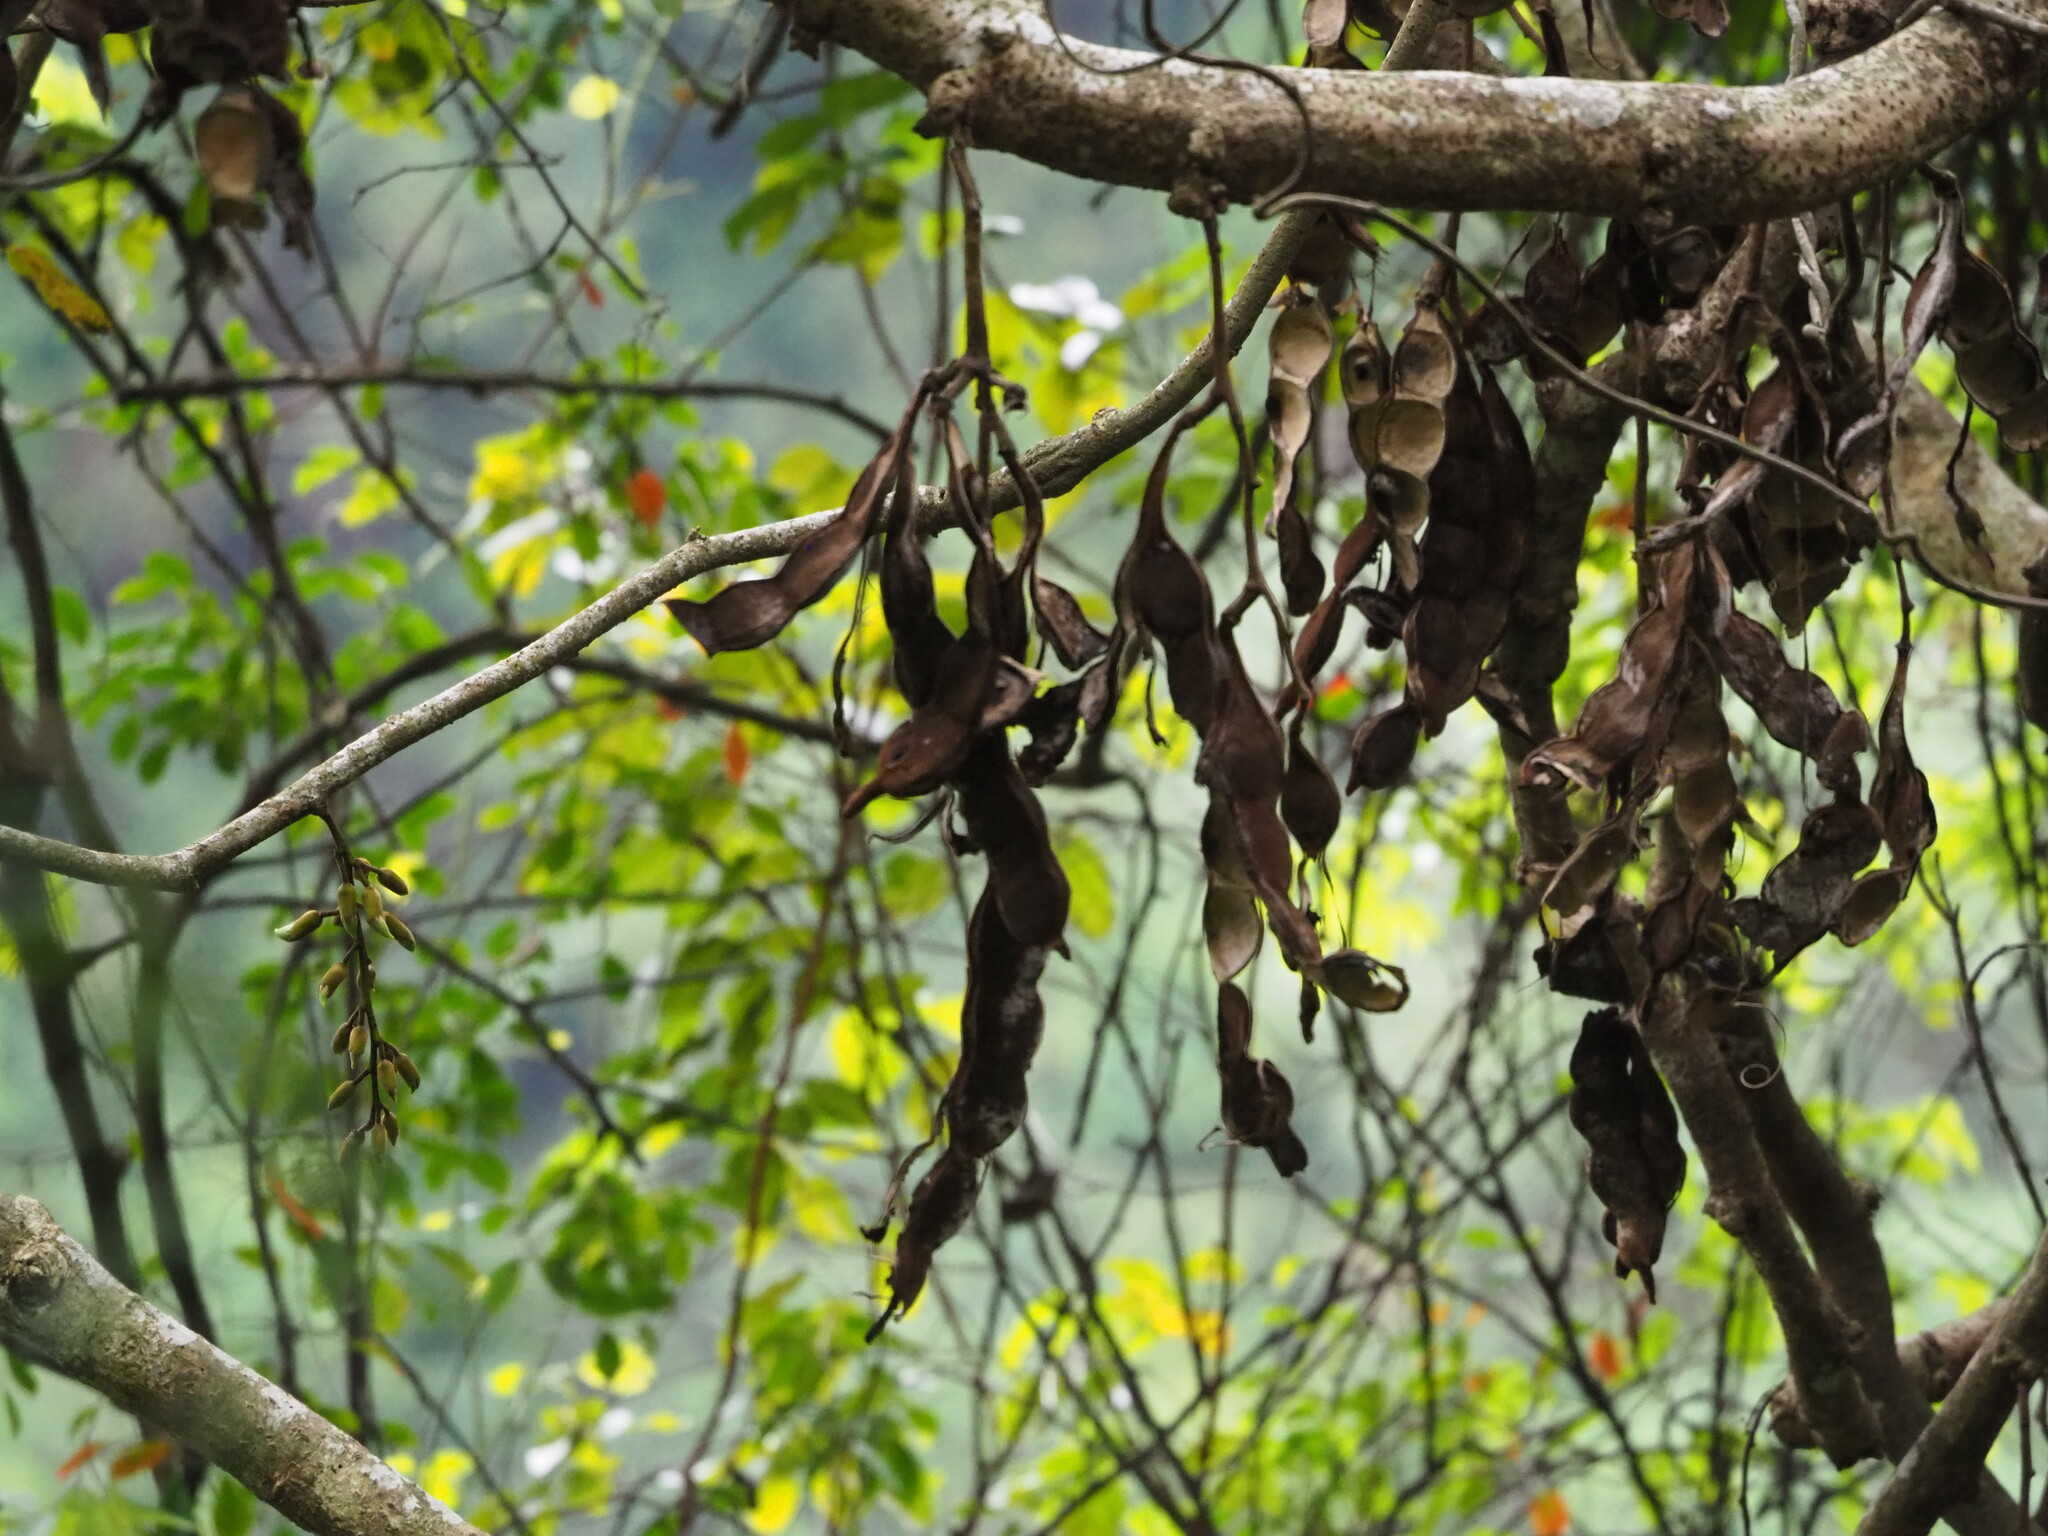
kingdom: Plantae
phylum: Tracheophyta
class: Magnoliopsida
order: Fabales
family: Fabaceae
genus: Mucuna
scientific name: Mucuna macrocarpa
